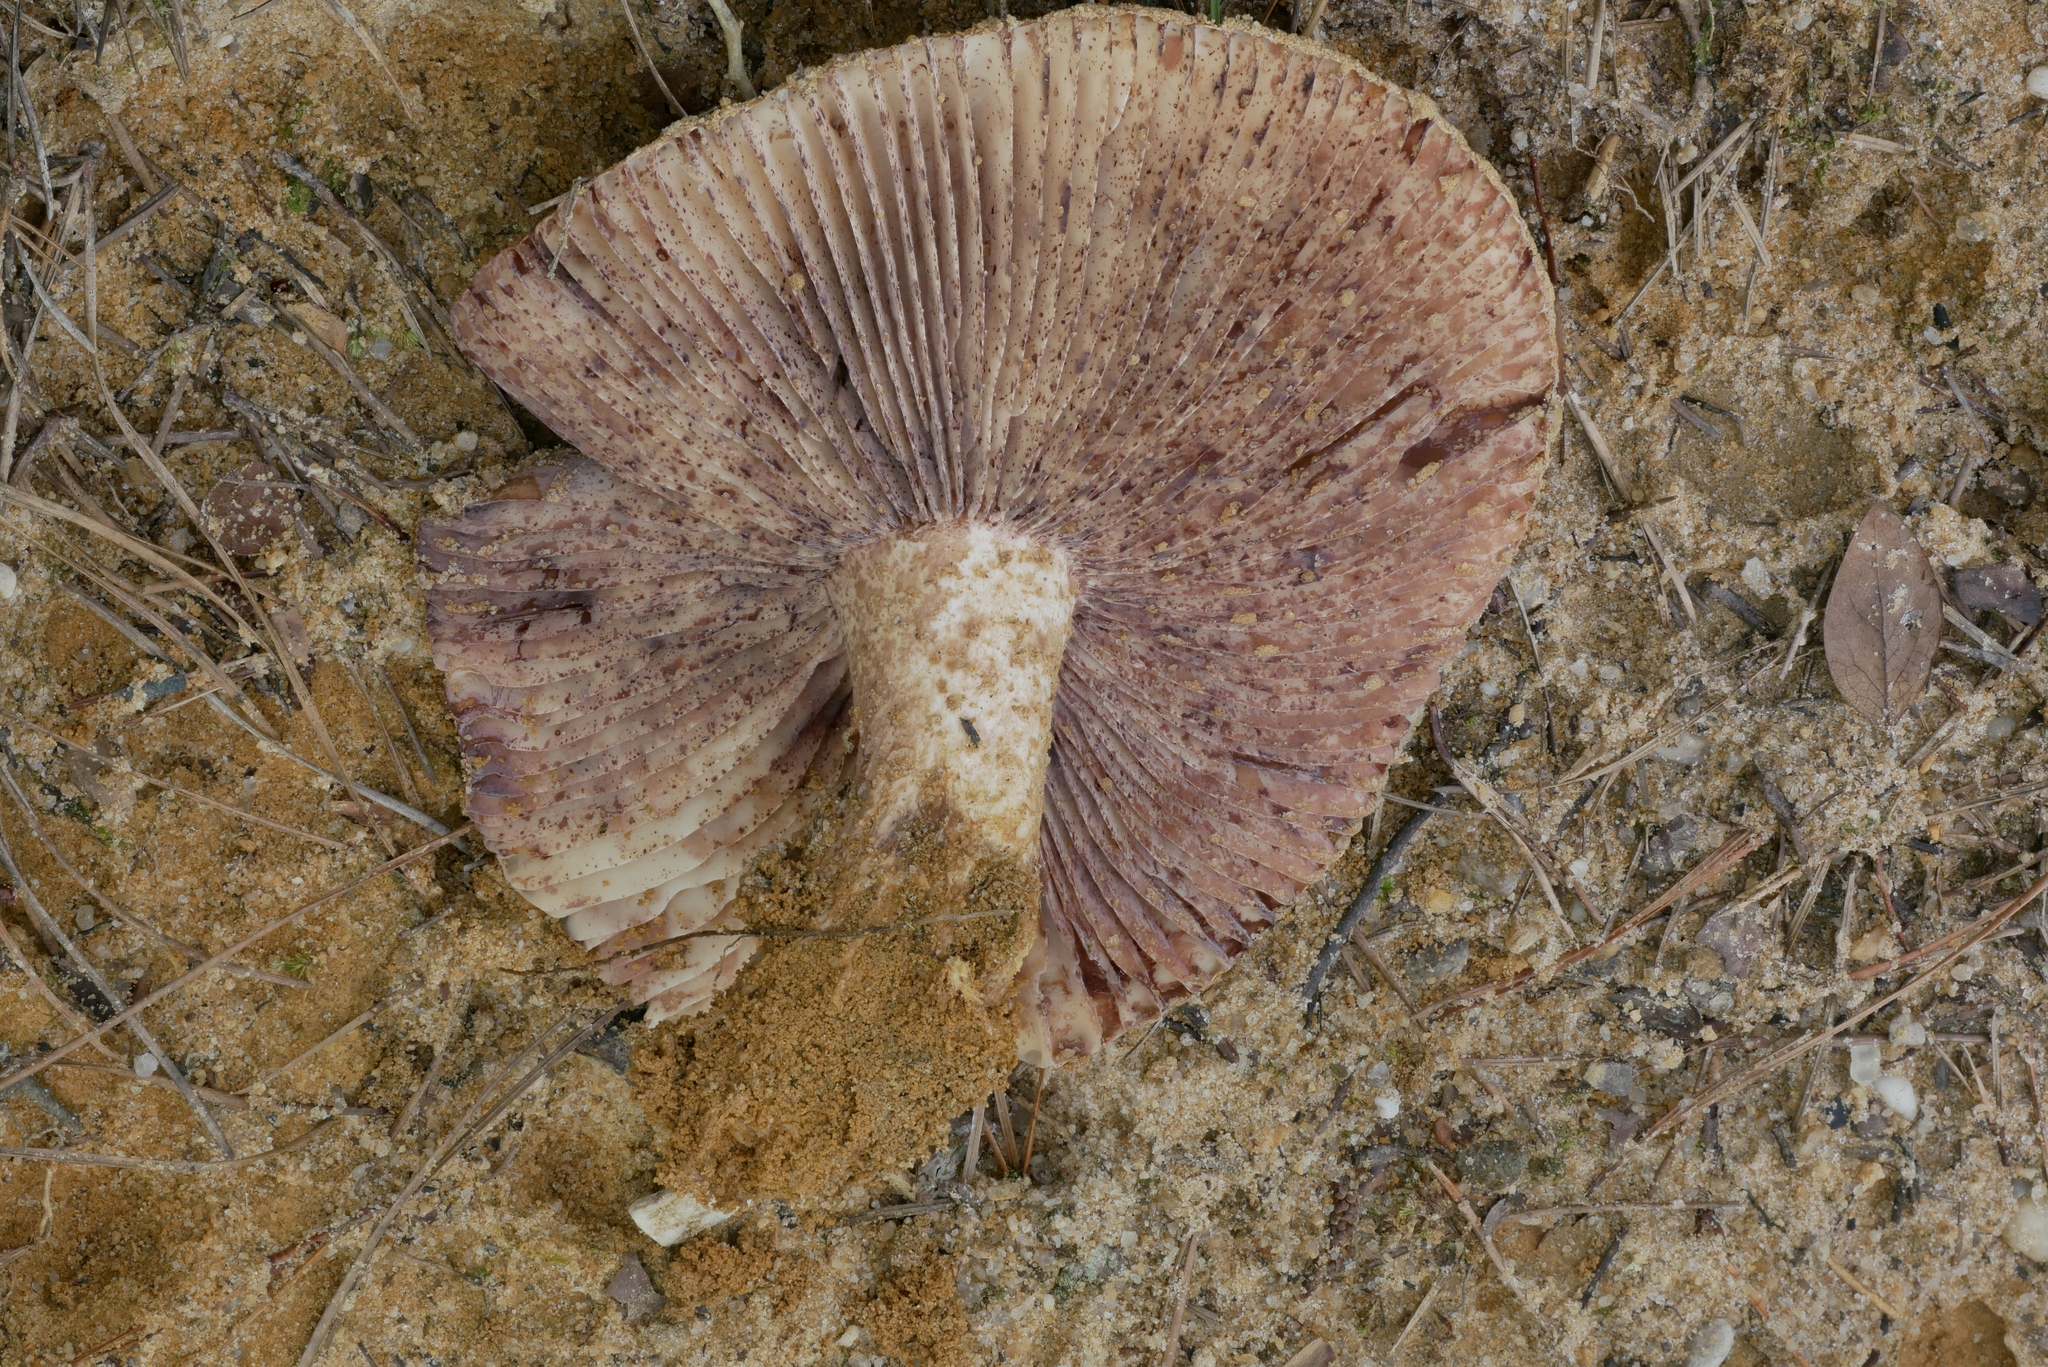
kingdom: Fungi
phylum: Basidiomycota
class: Agaricomycetes
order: Russulales
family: Russulaceae
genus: Russula
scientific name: Russula ventricosipes
